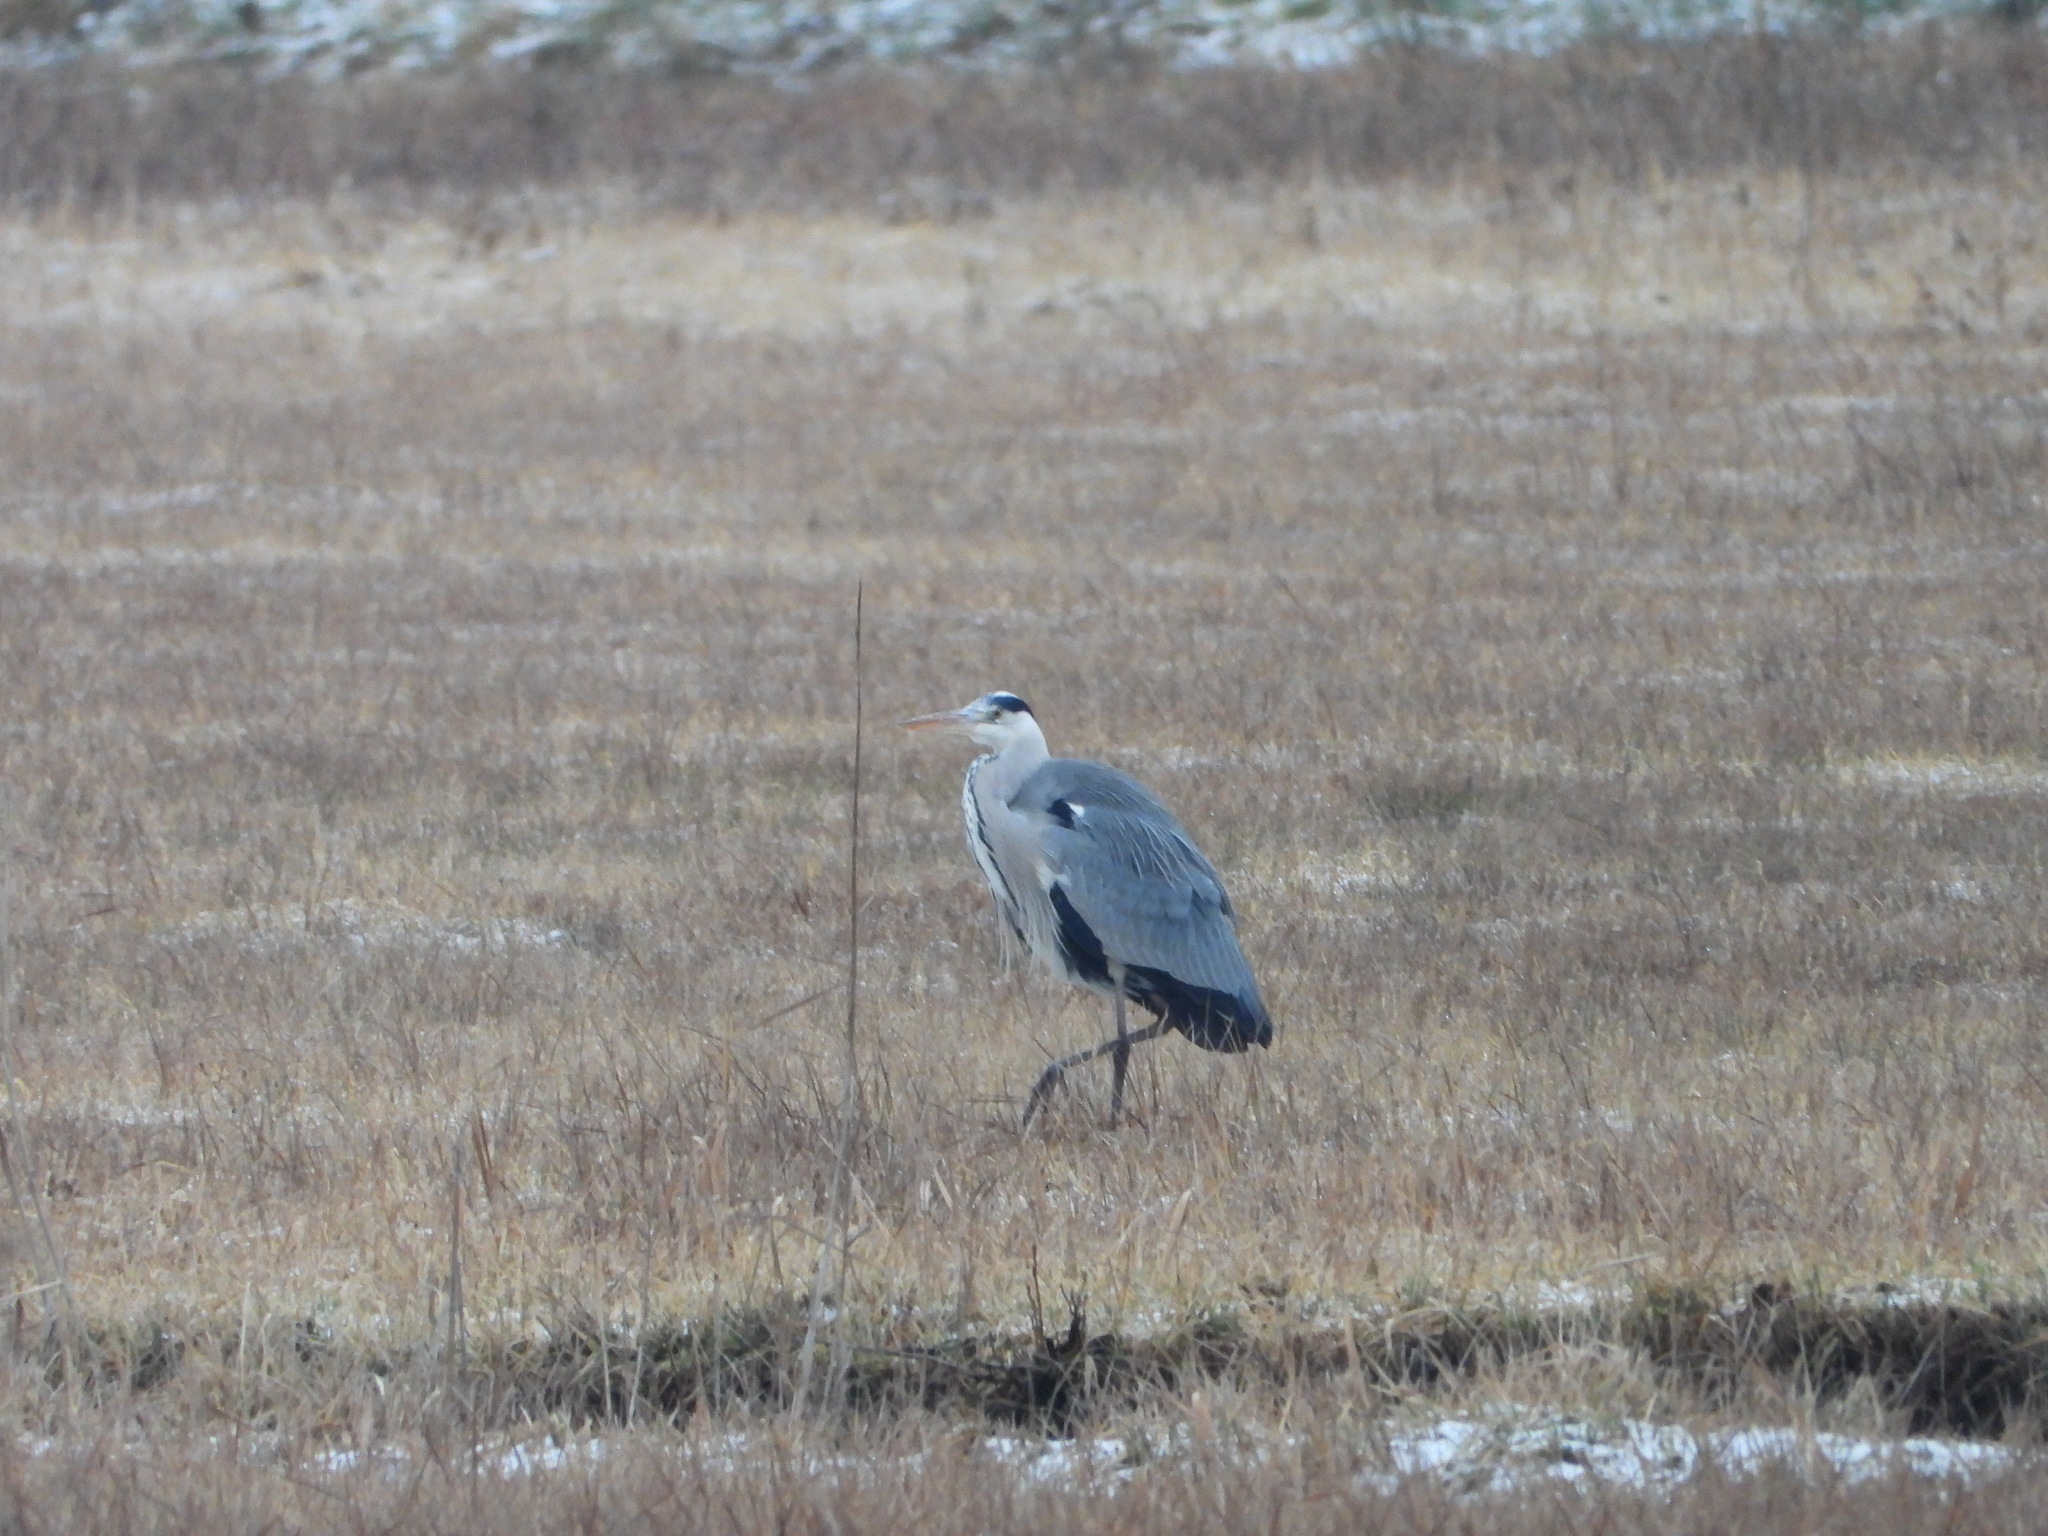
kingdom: Animalia
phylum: Chordata
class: Aves
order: Pelecaniformes
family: Ardeidae
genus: Ardea
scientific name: Ardea cinerea
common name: Grey heron
